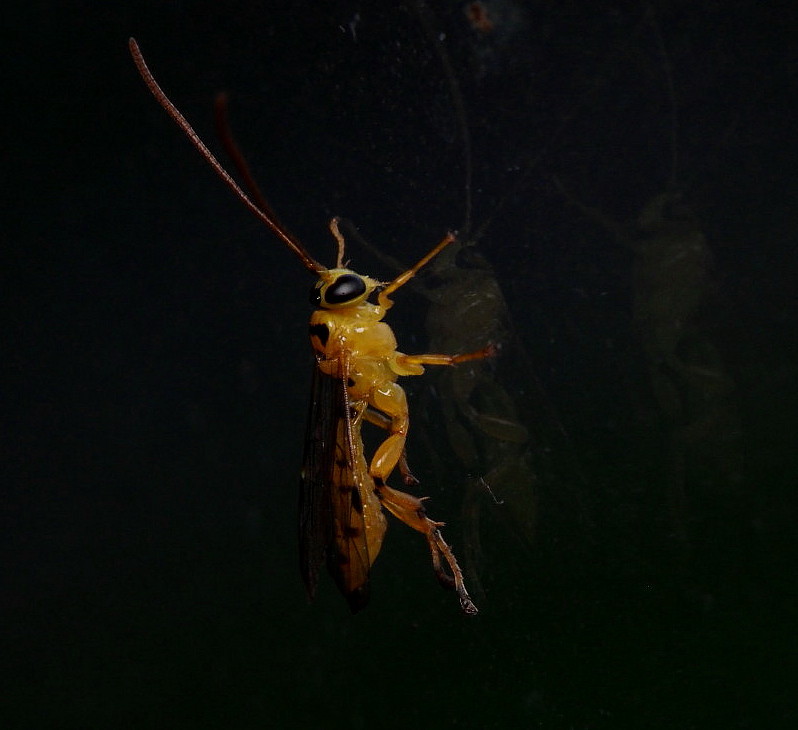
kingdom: Animalia
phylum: Arthropoda
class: Insecta
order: Hymenoptera
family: Ichneumonidae
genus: Xanthopimpla
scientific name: Xanthopimpla rhopaloceros
